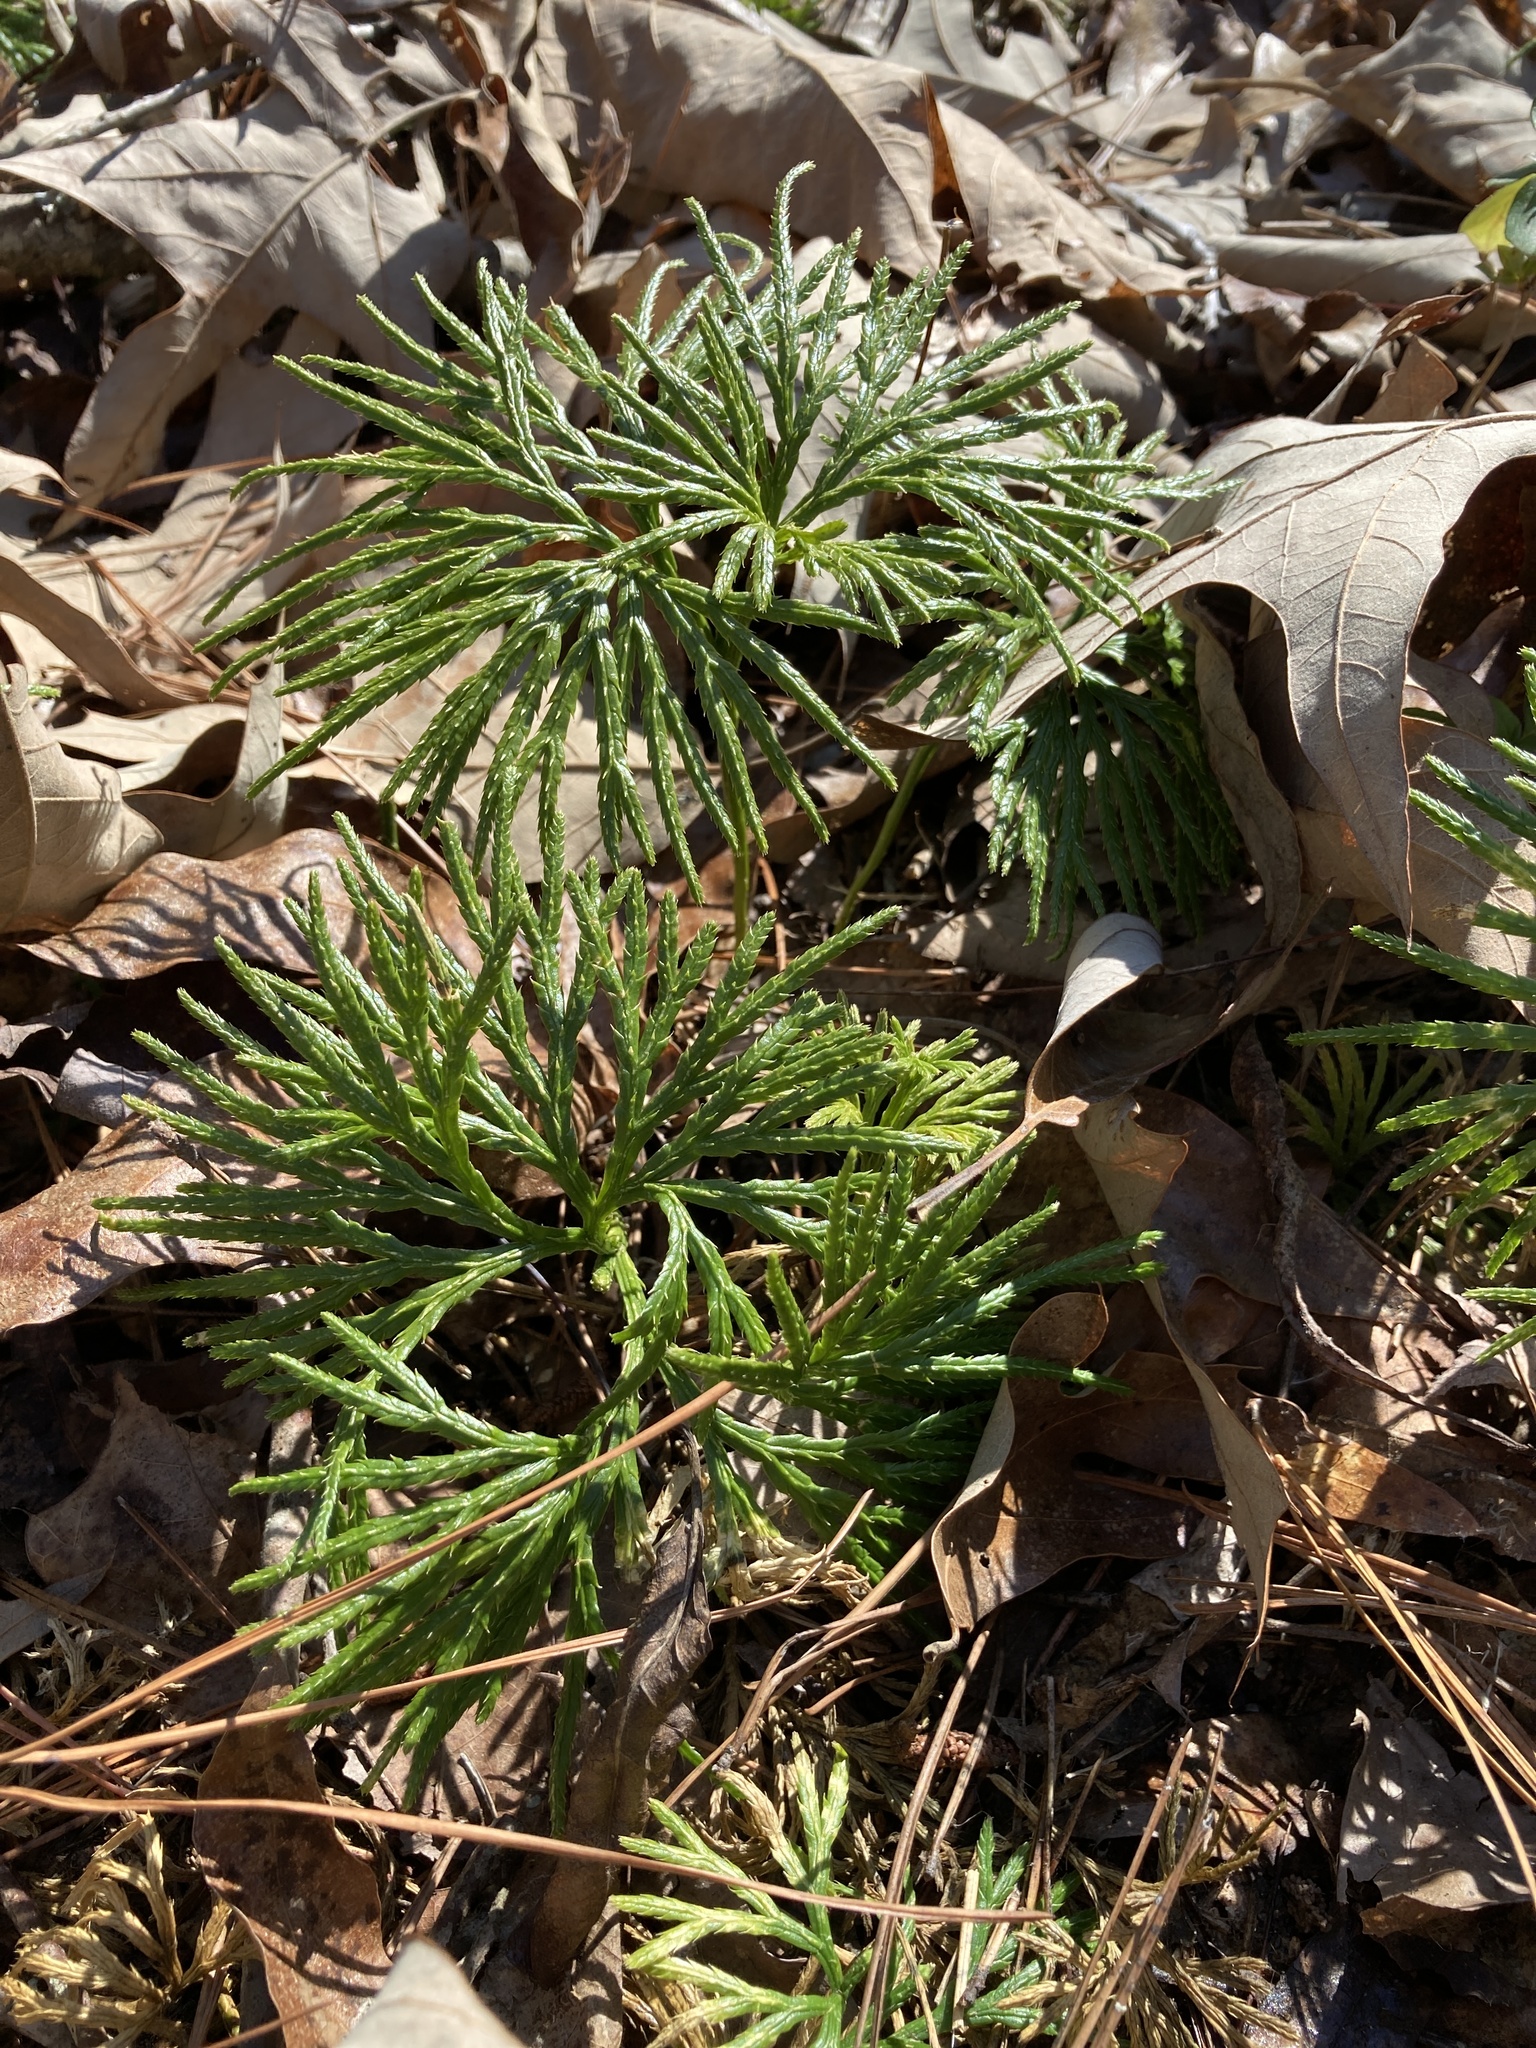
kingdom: Plantae
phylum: Tracheophyta
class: Lycopodiopsida
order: Lycopodiales
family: Lycopodiaceae
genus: Diphasiastrum
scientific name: Diphasiastrum digitatum
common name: Southern running-pine
